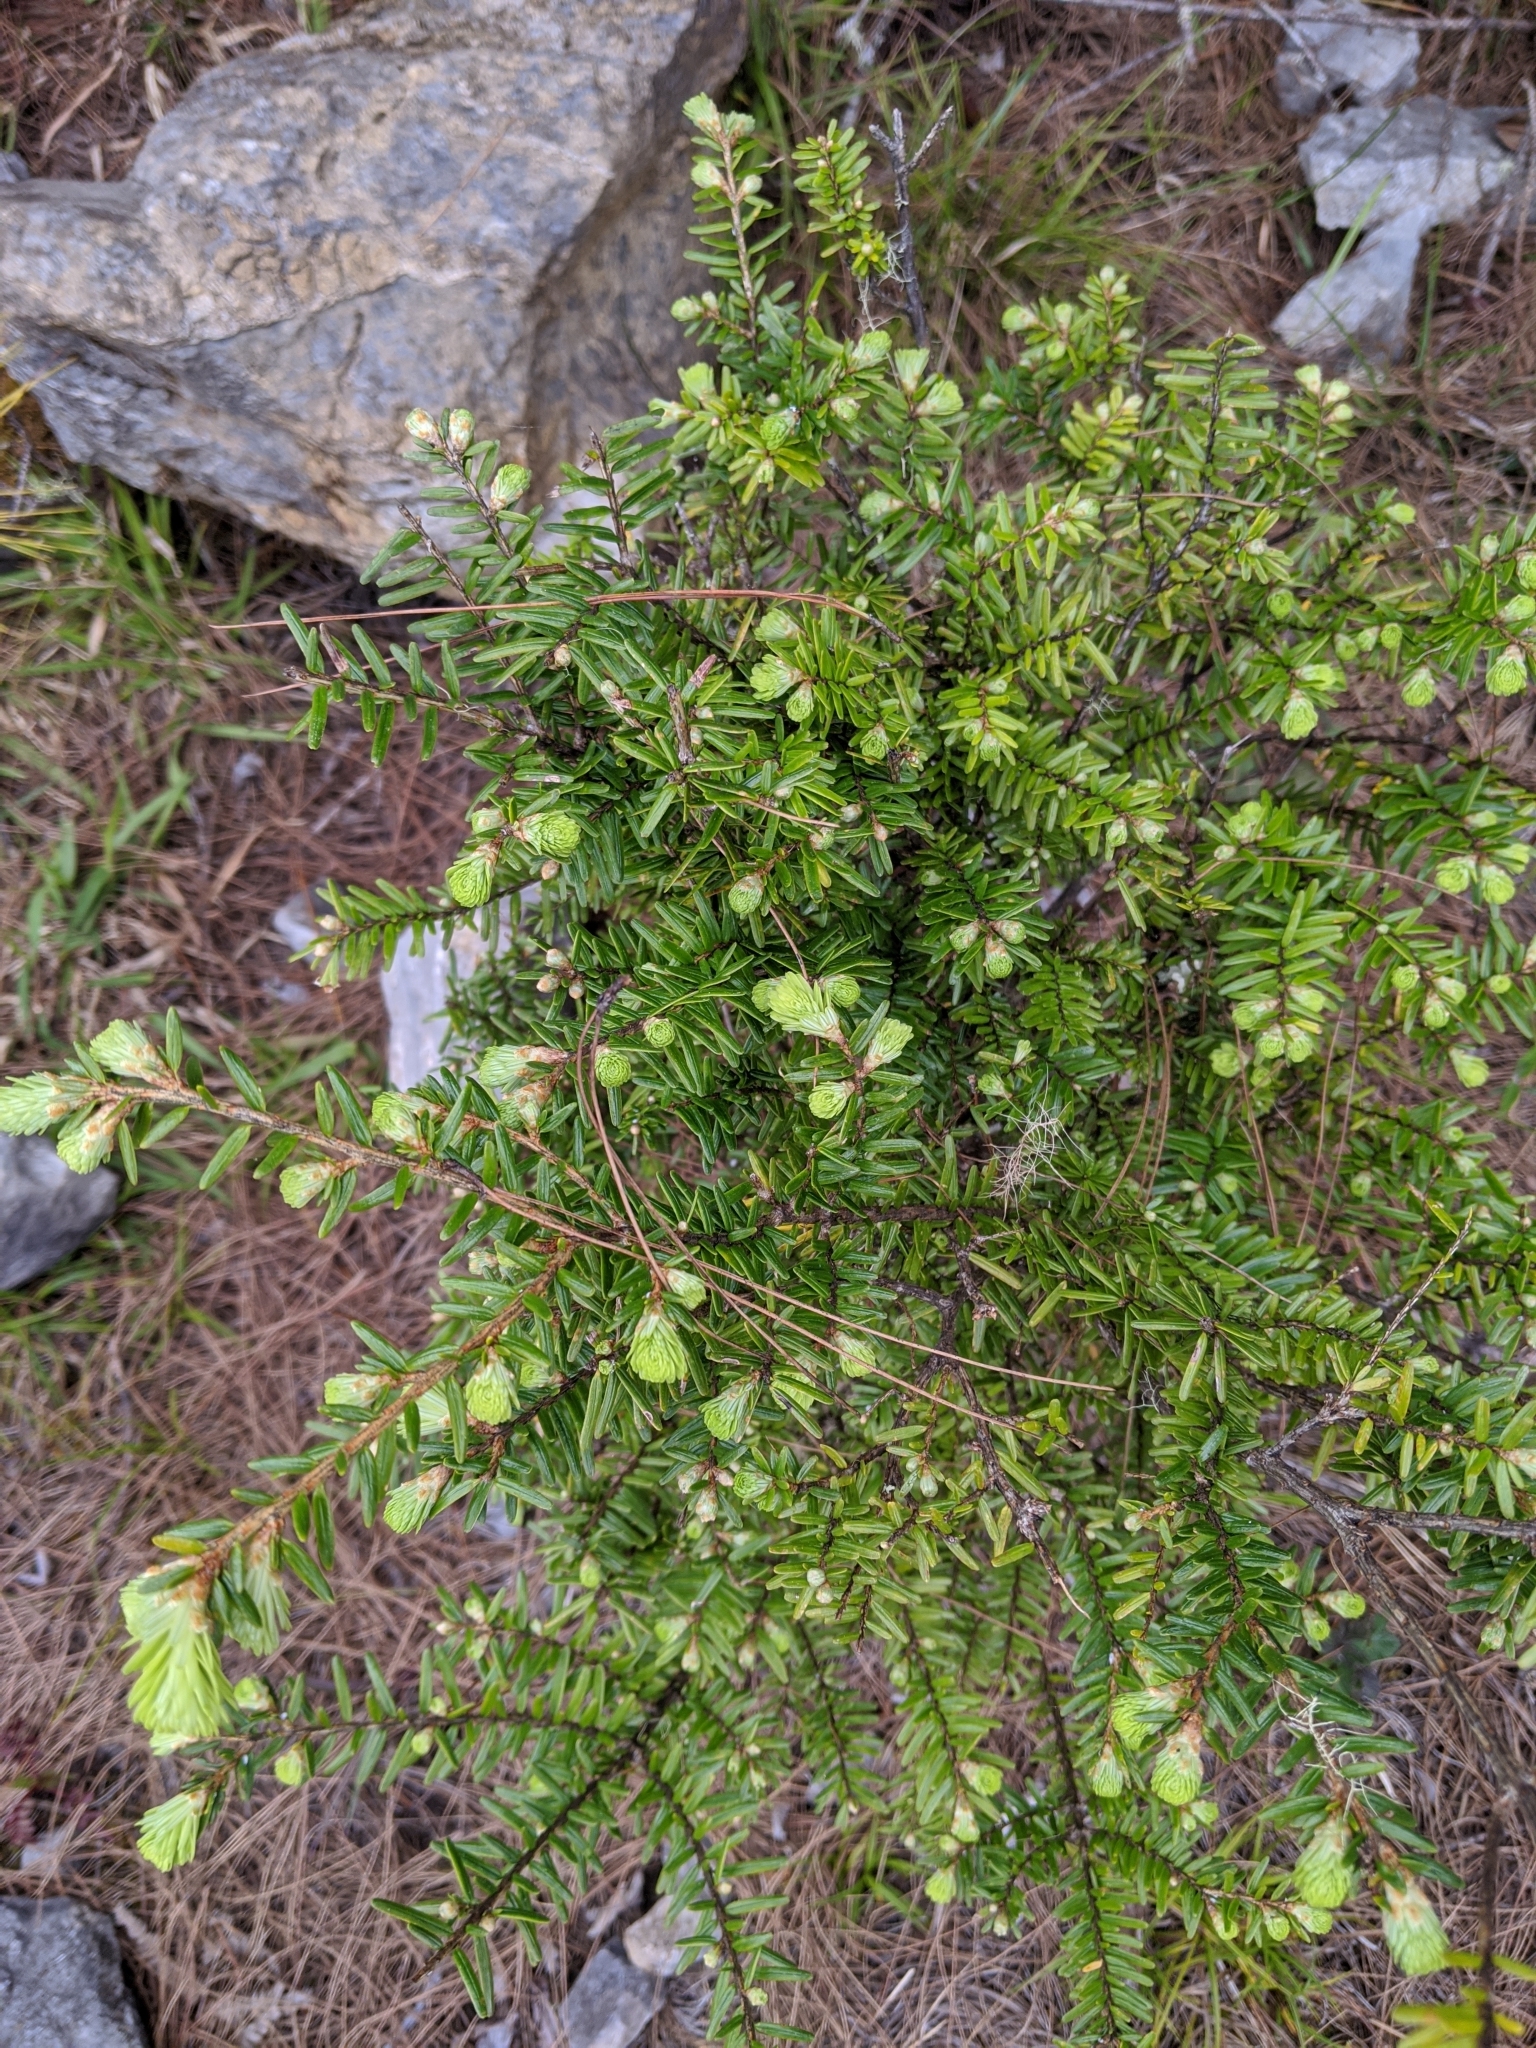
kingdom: Plantae
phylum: Tracheophyta
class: Pinopsida
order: Pinales
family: Pinaceae
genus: Tsuga
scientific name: Tsuga chinensis
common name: Chinese hemlock
